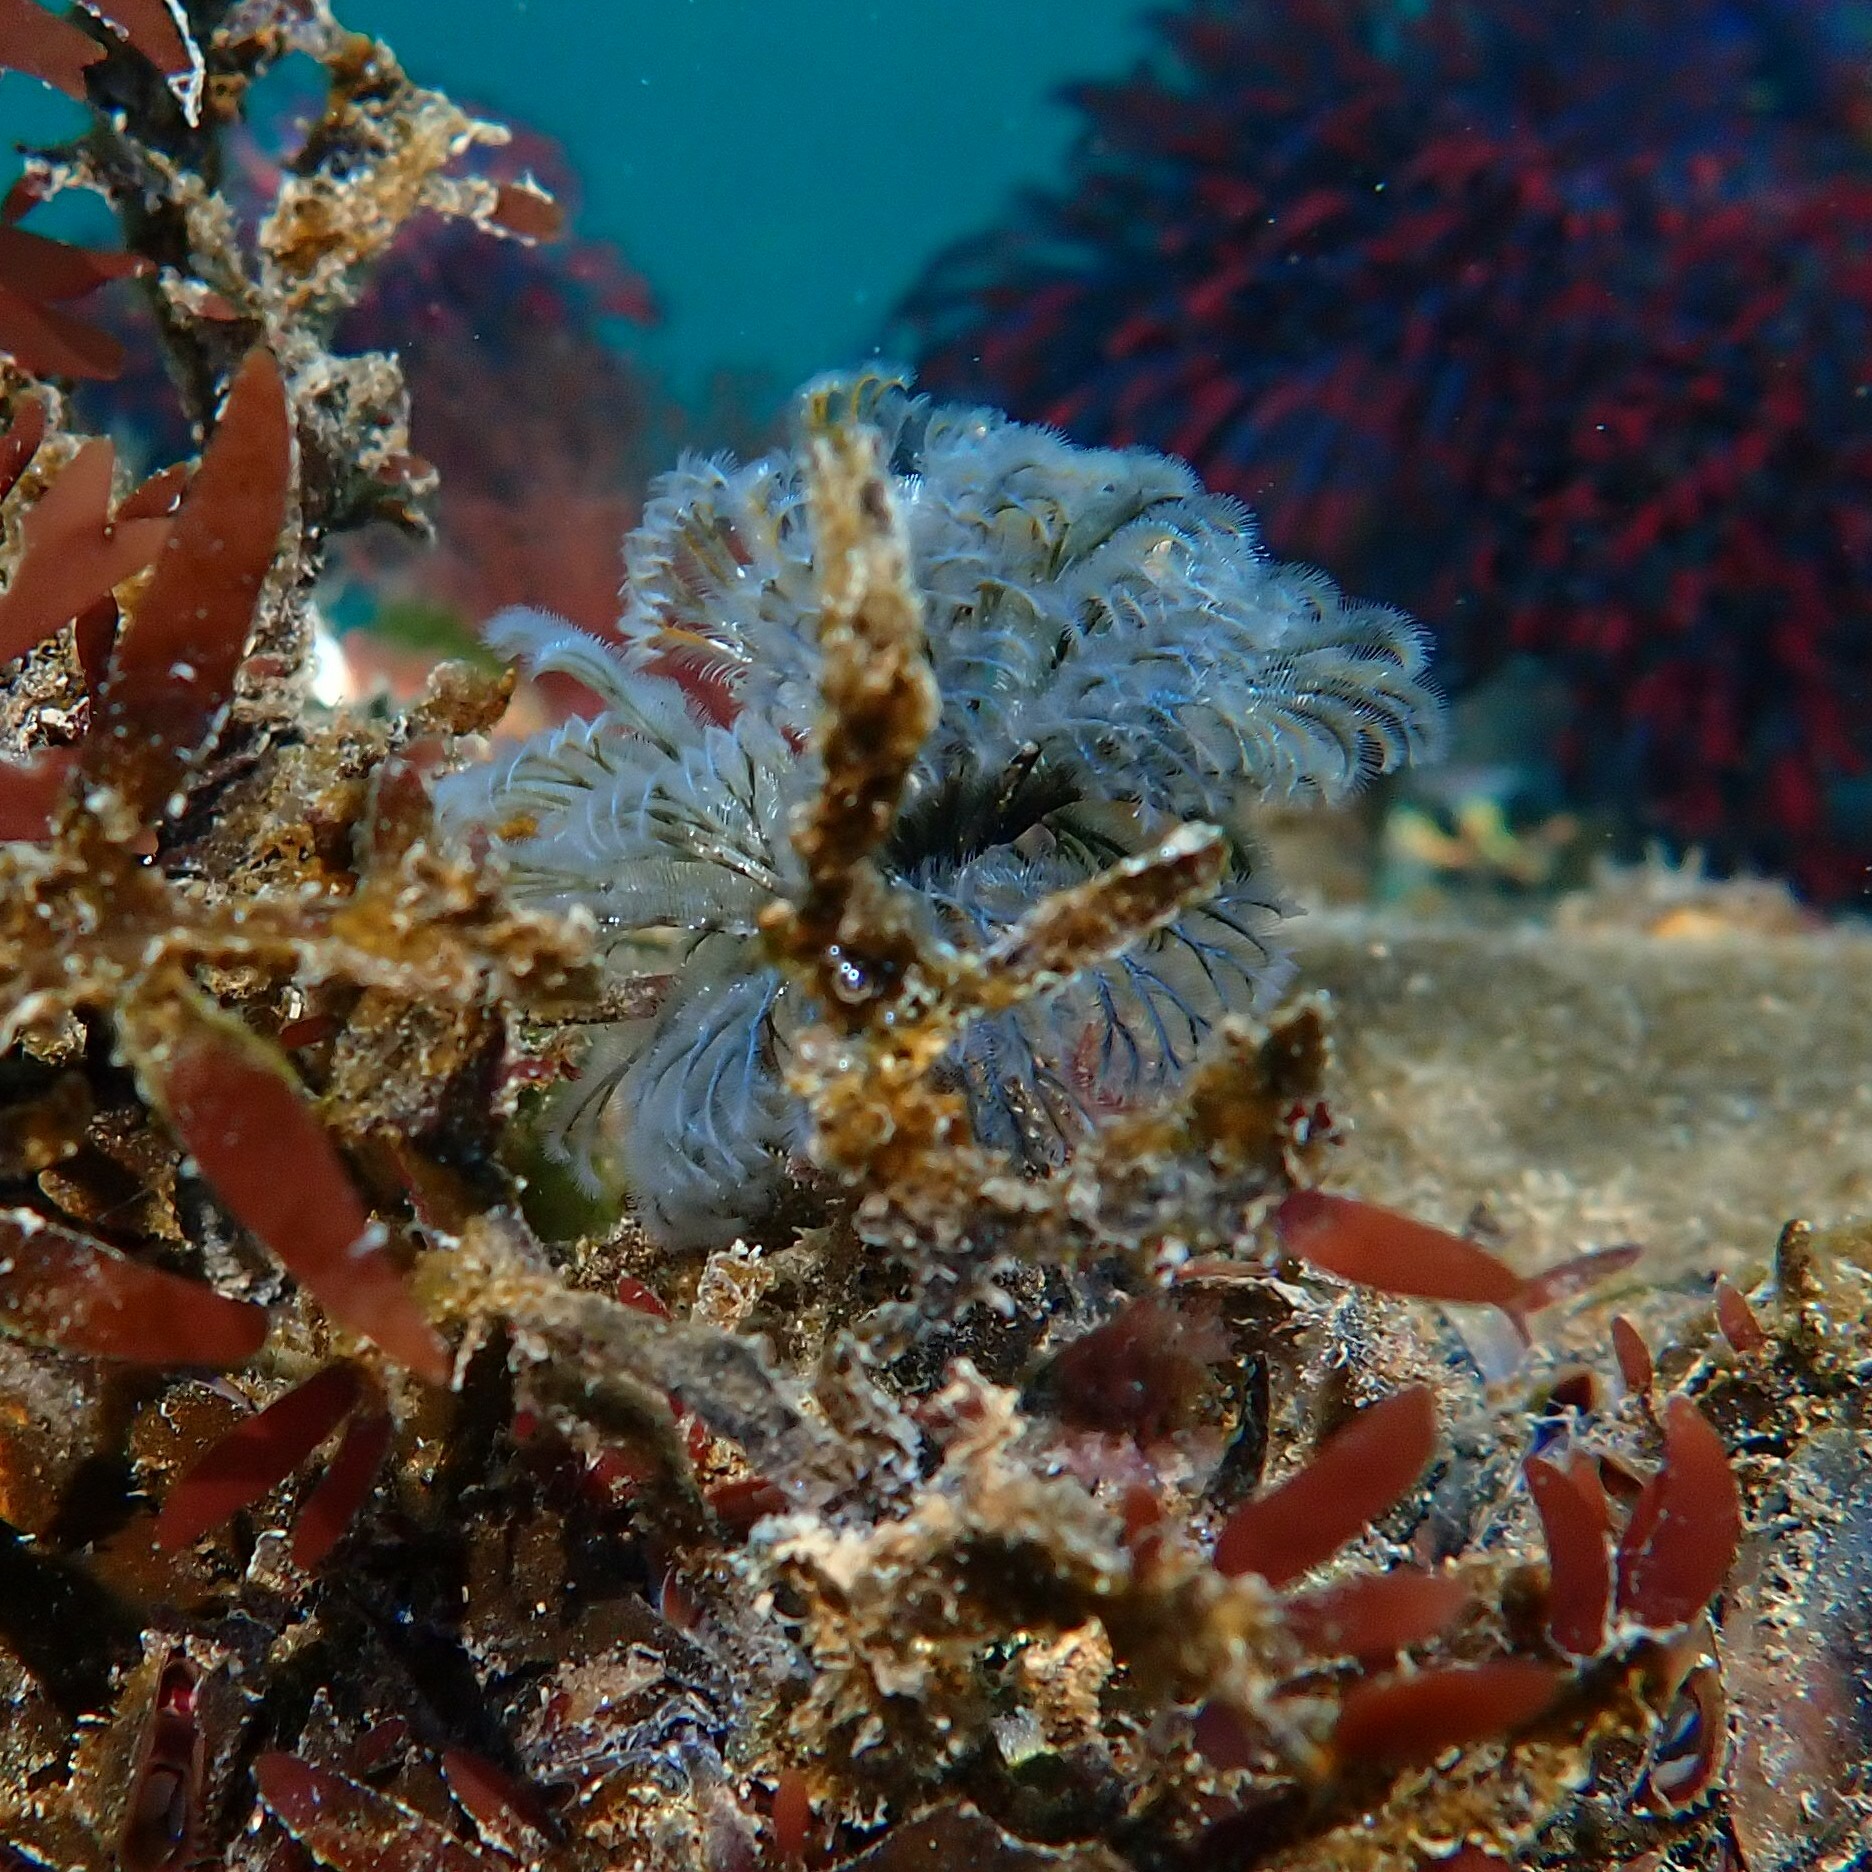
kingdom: Animalia
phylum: Annelida
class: Polychaeta
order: Sabellida
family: Sabellidae
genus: Schizobranchia
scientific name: Schizobranchia insignis
